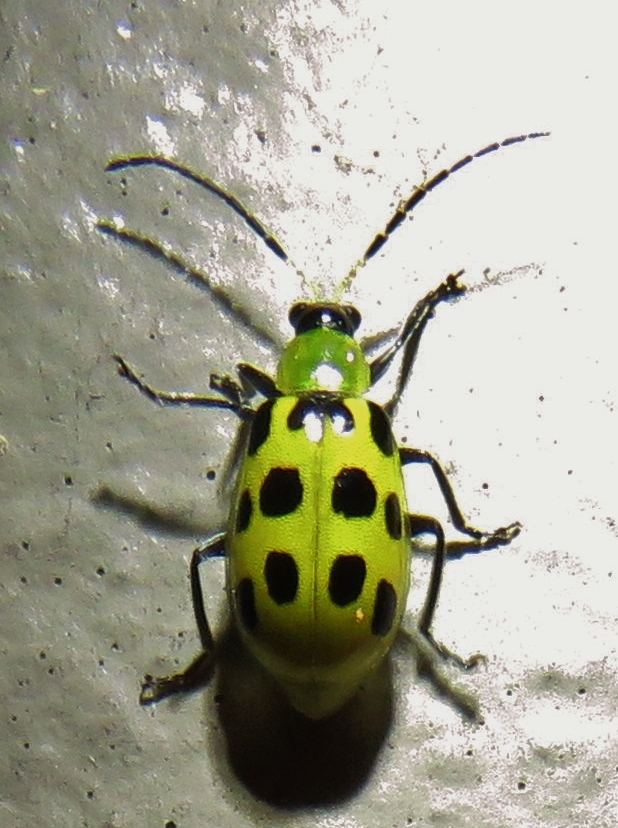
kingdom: Animalia
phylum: Arthropoda
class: Insecta
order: Coleoptera
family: Chrysomelidae
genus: Diabrotica
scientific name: Diabrotica undecimpunctata
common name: Spotted cucumber beetle
